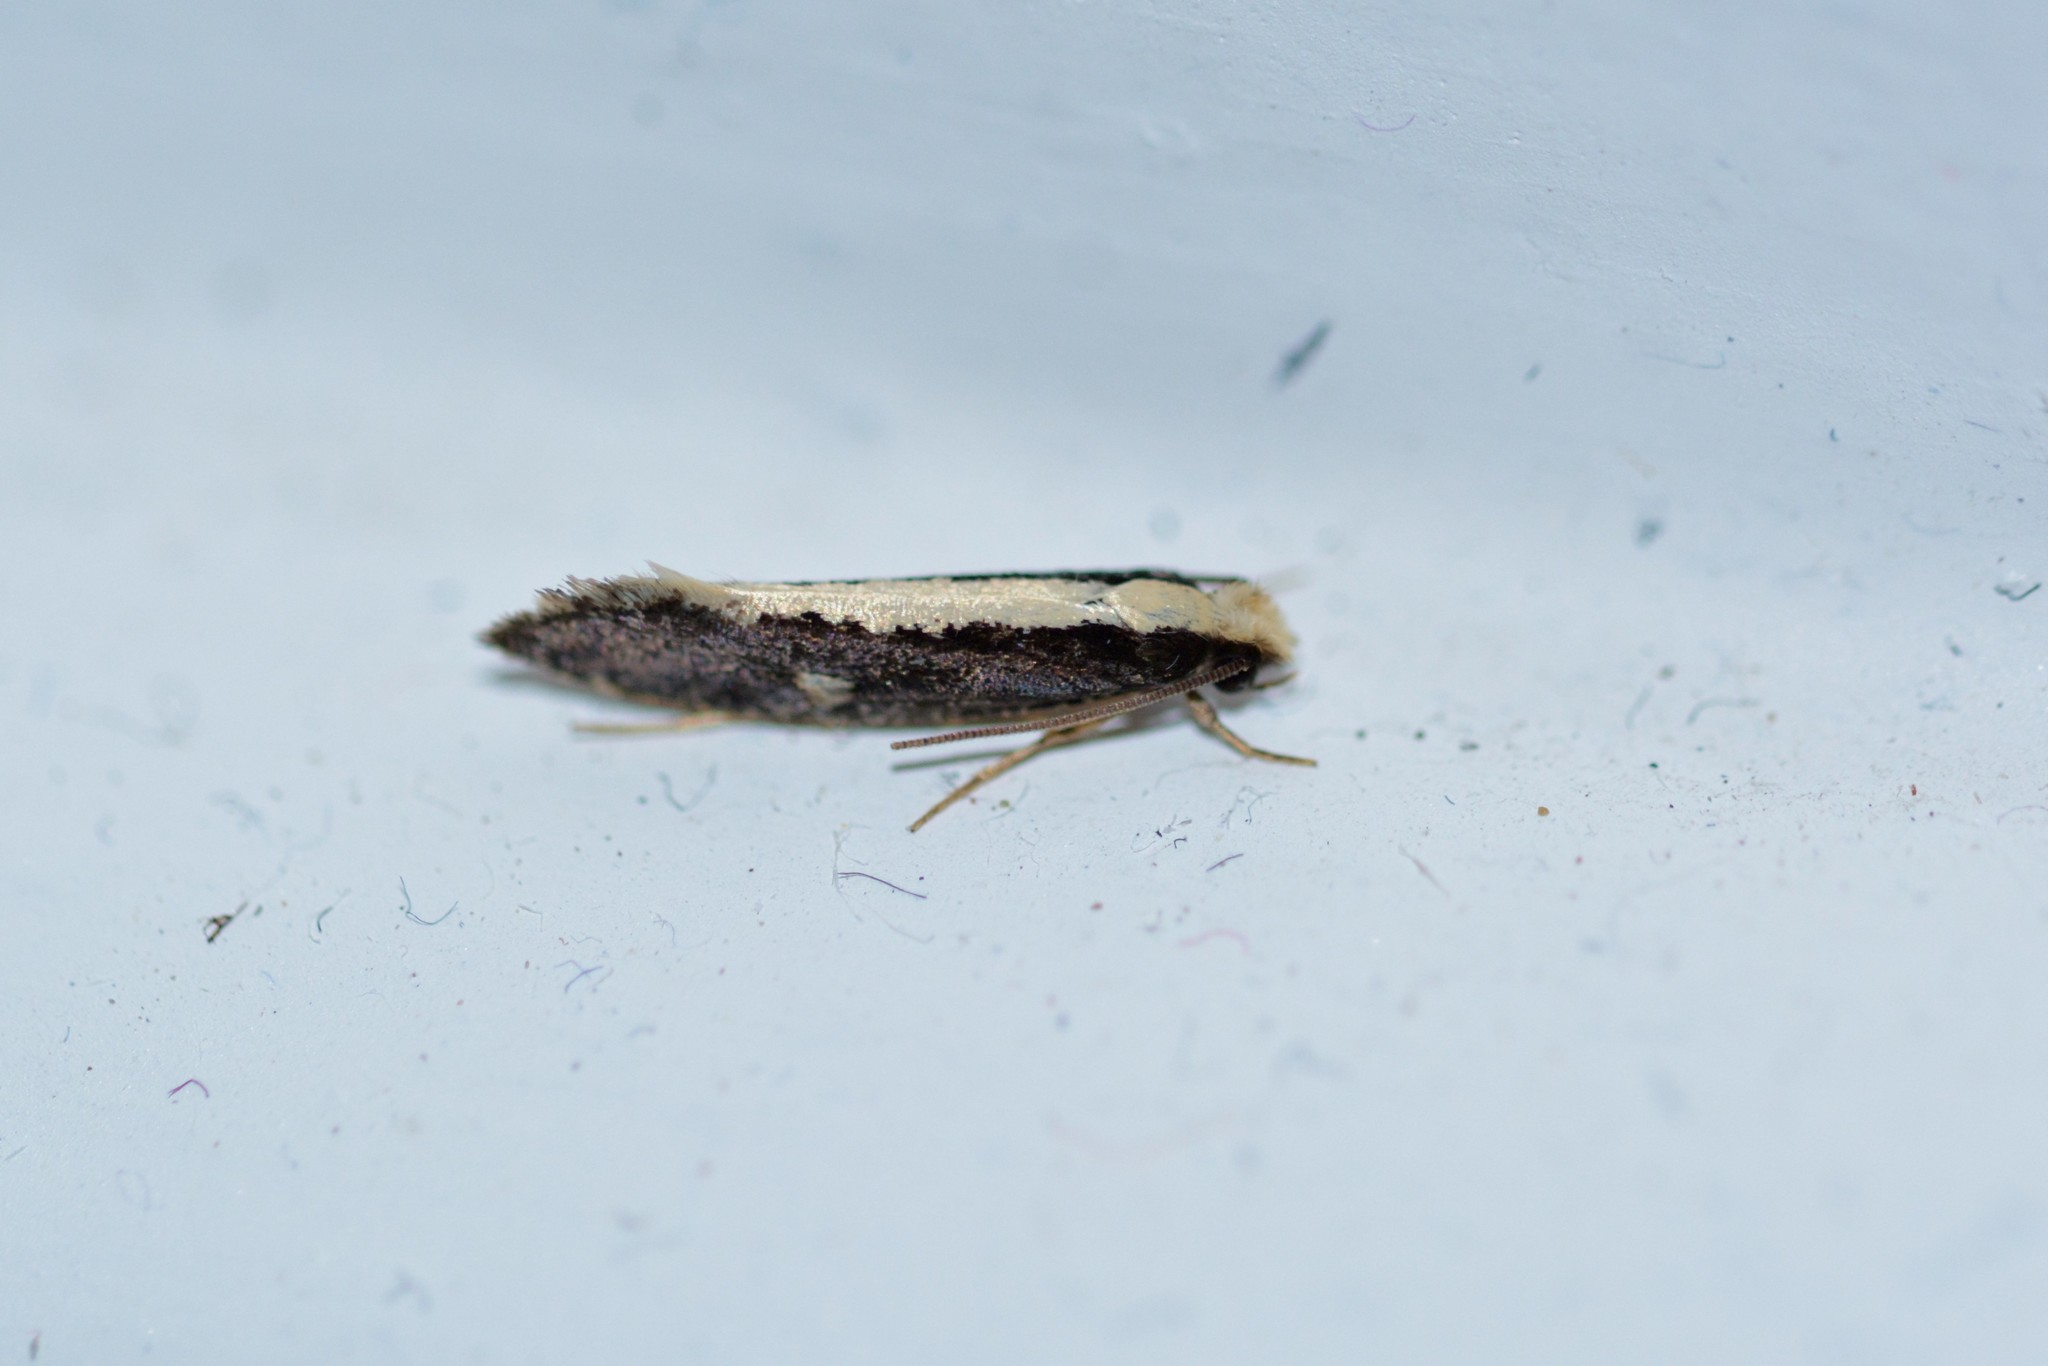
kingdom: Animalia
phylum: Arthropoda
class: Insecta
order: Lepidoptera
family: Tineidae
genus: Monopis
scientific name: Monopis ethelella
